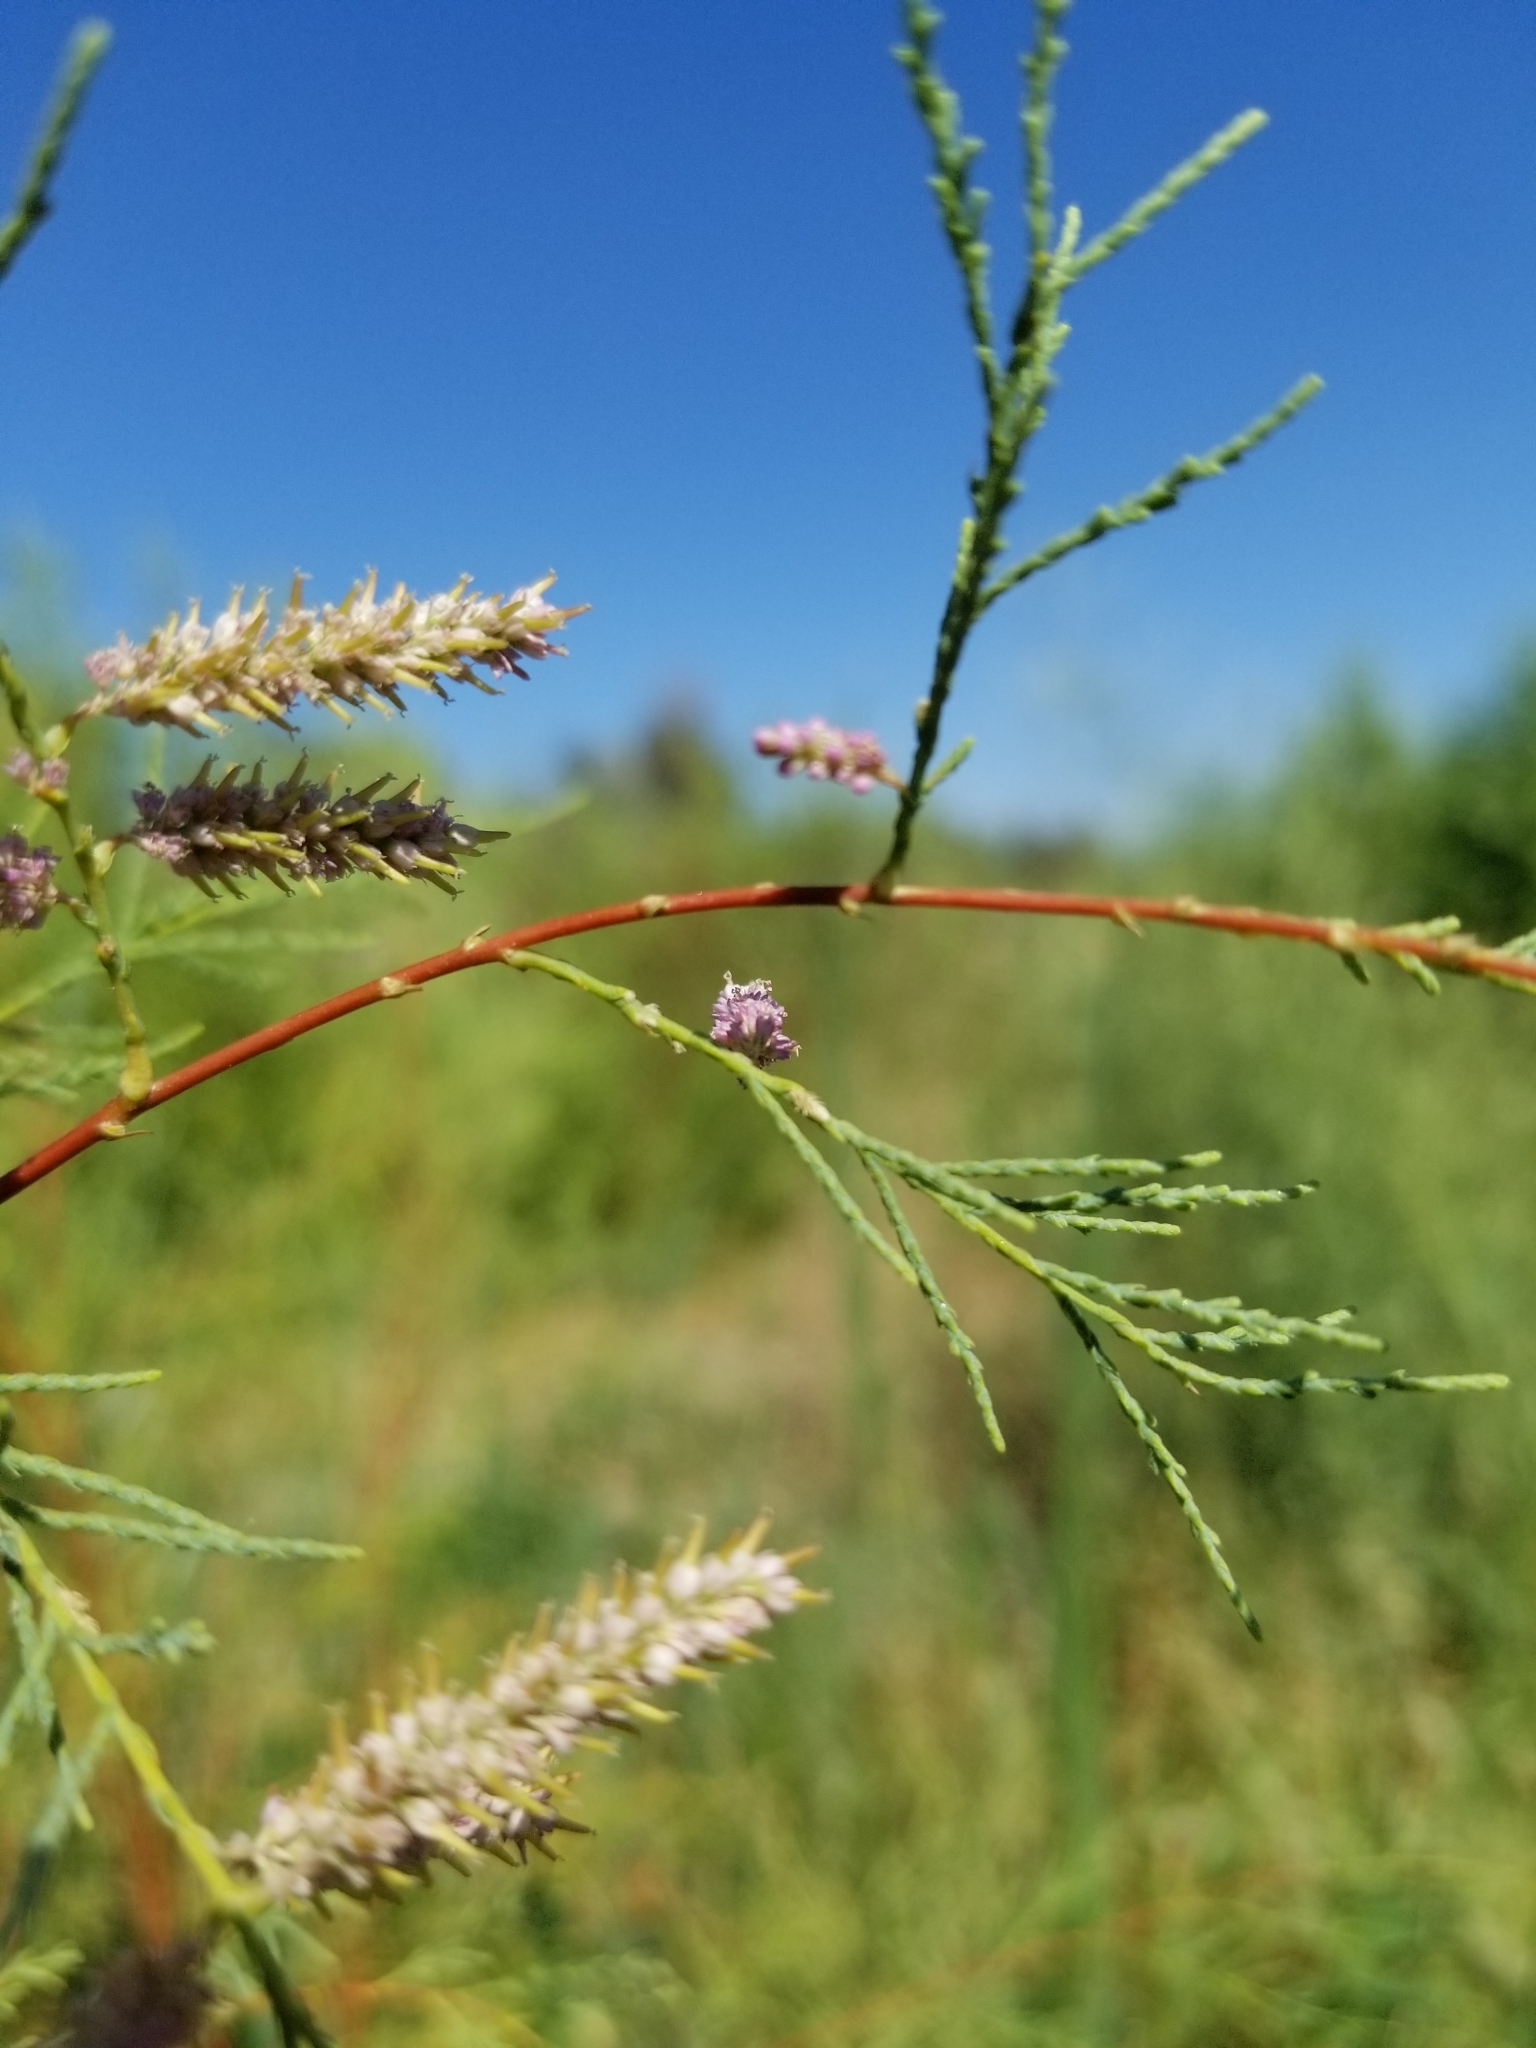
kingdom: Plantae
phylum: Tracheophyta
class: Magnoliopsida
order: Caryophyllales
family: Tamaricaceae
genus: Tamarix
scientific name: Tamarix ramosissima
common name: Pink tamarisk
